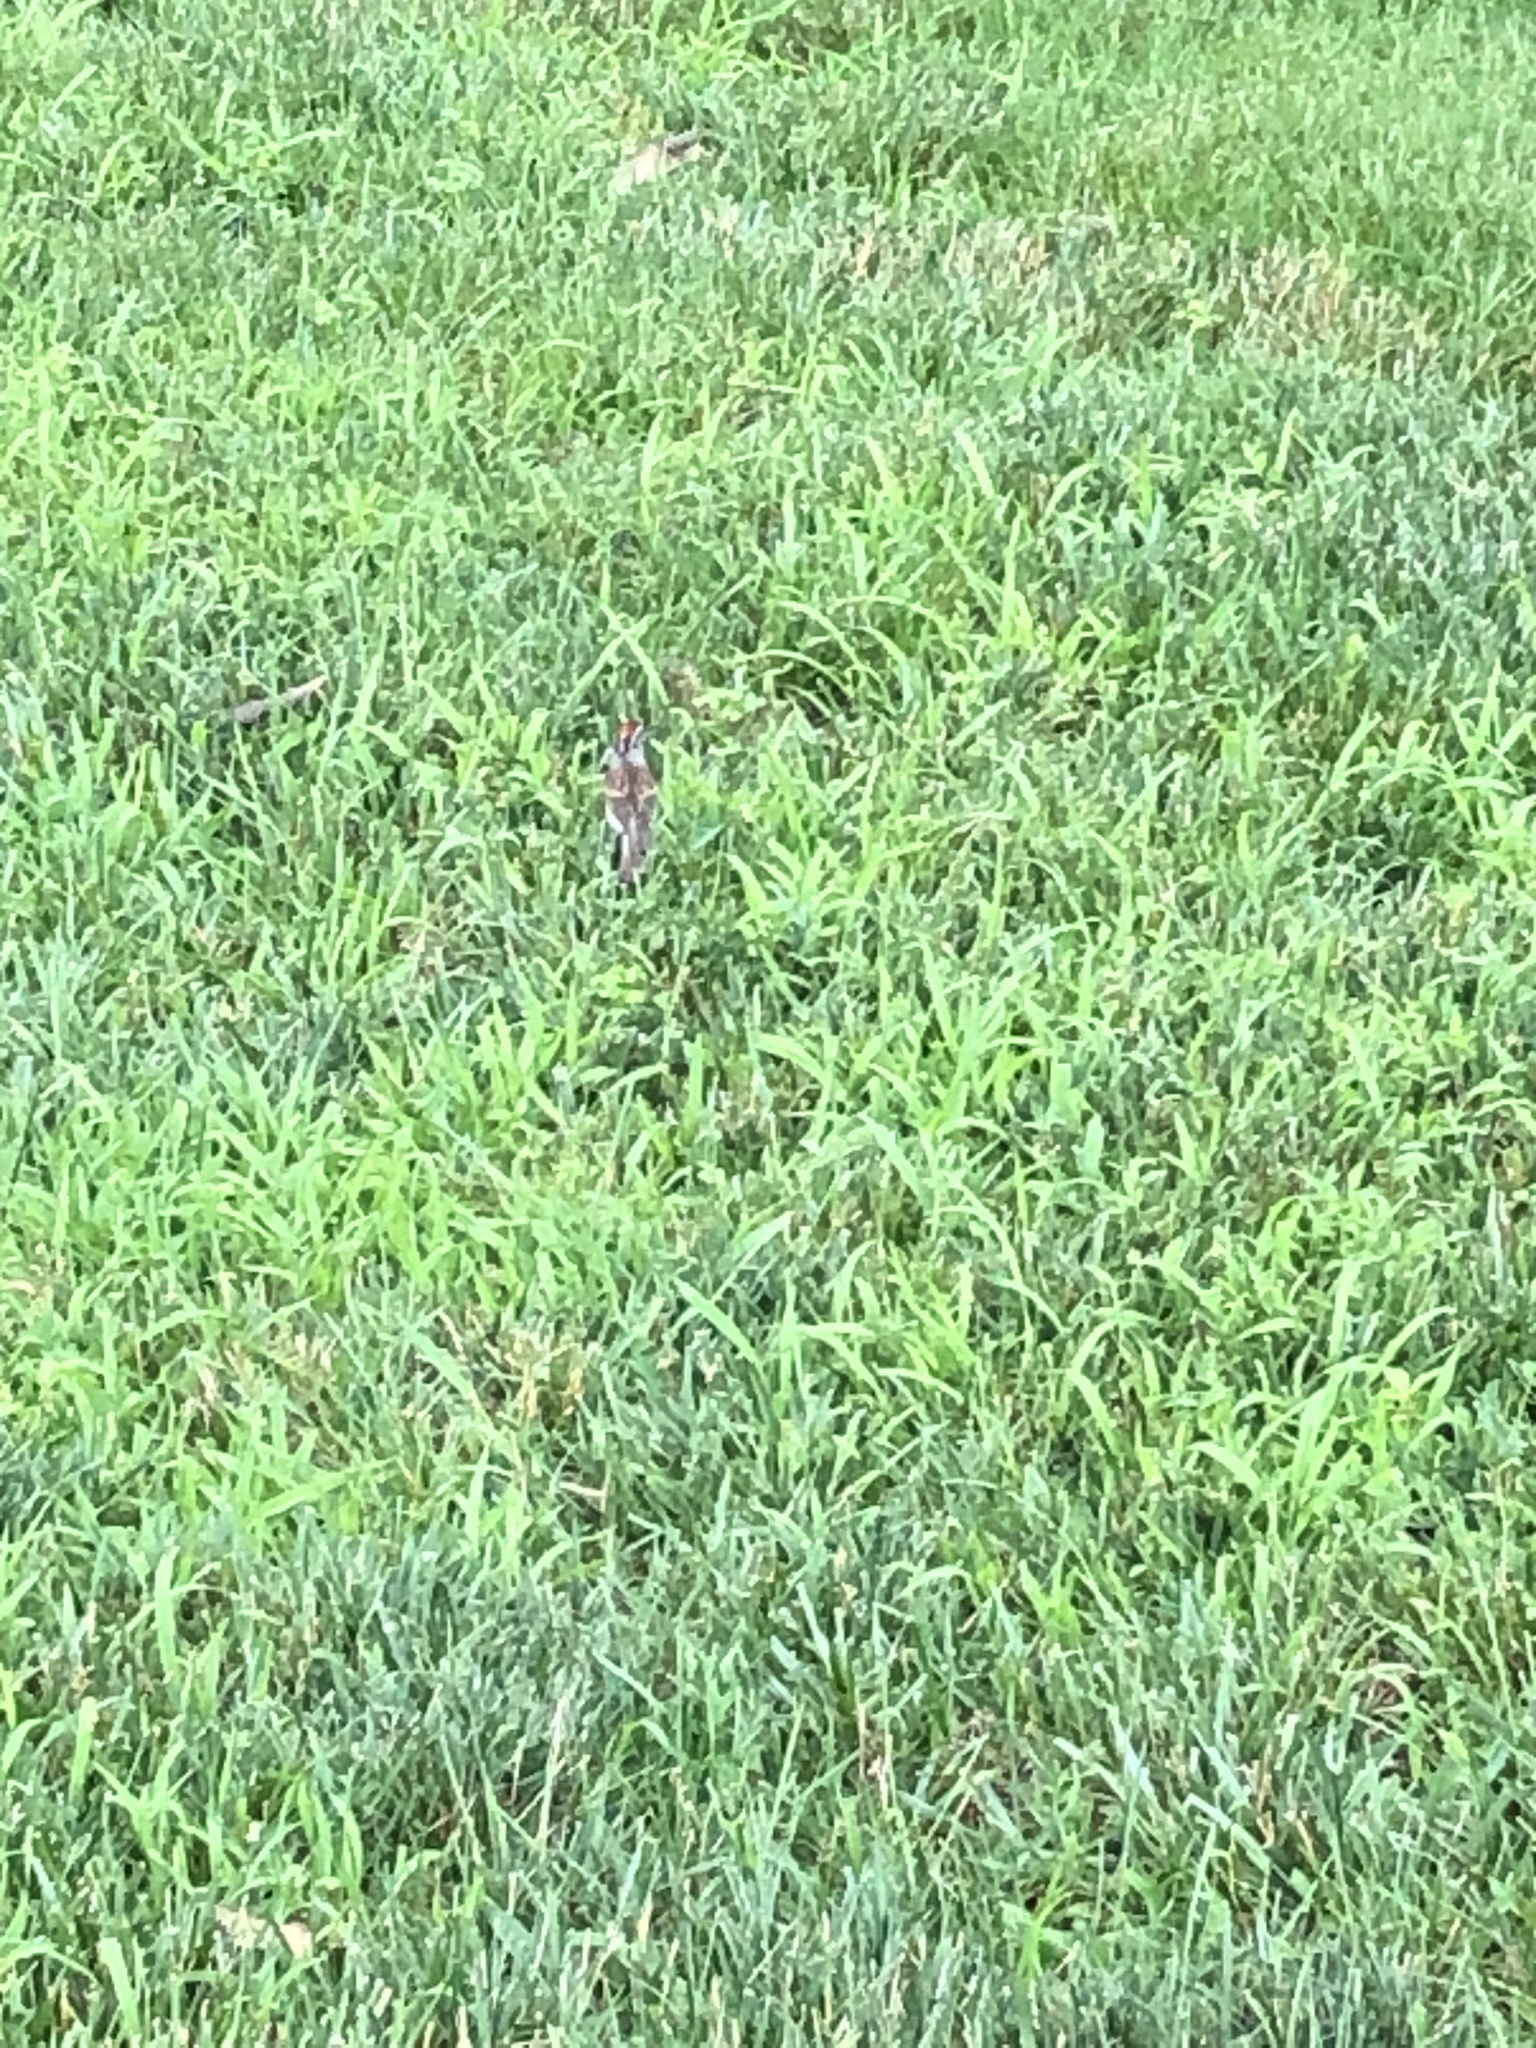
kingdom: Animalia
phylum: Chordata
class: Aves
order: Passeriformes
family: Passerellidae
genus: Spizella
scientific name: Spizella passerina
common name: Chipping sparrow
